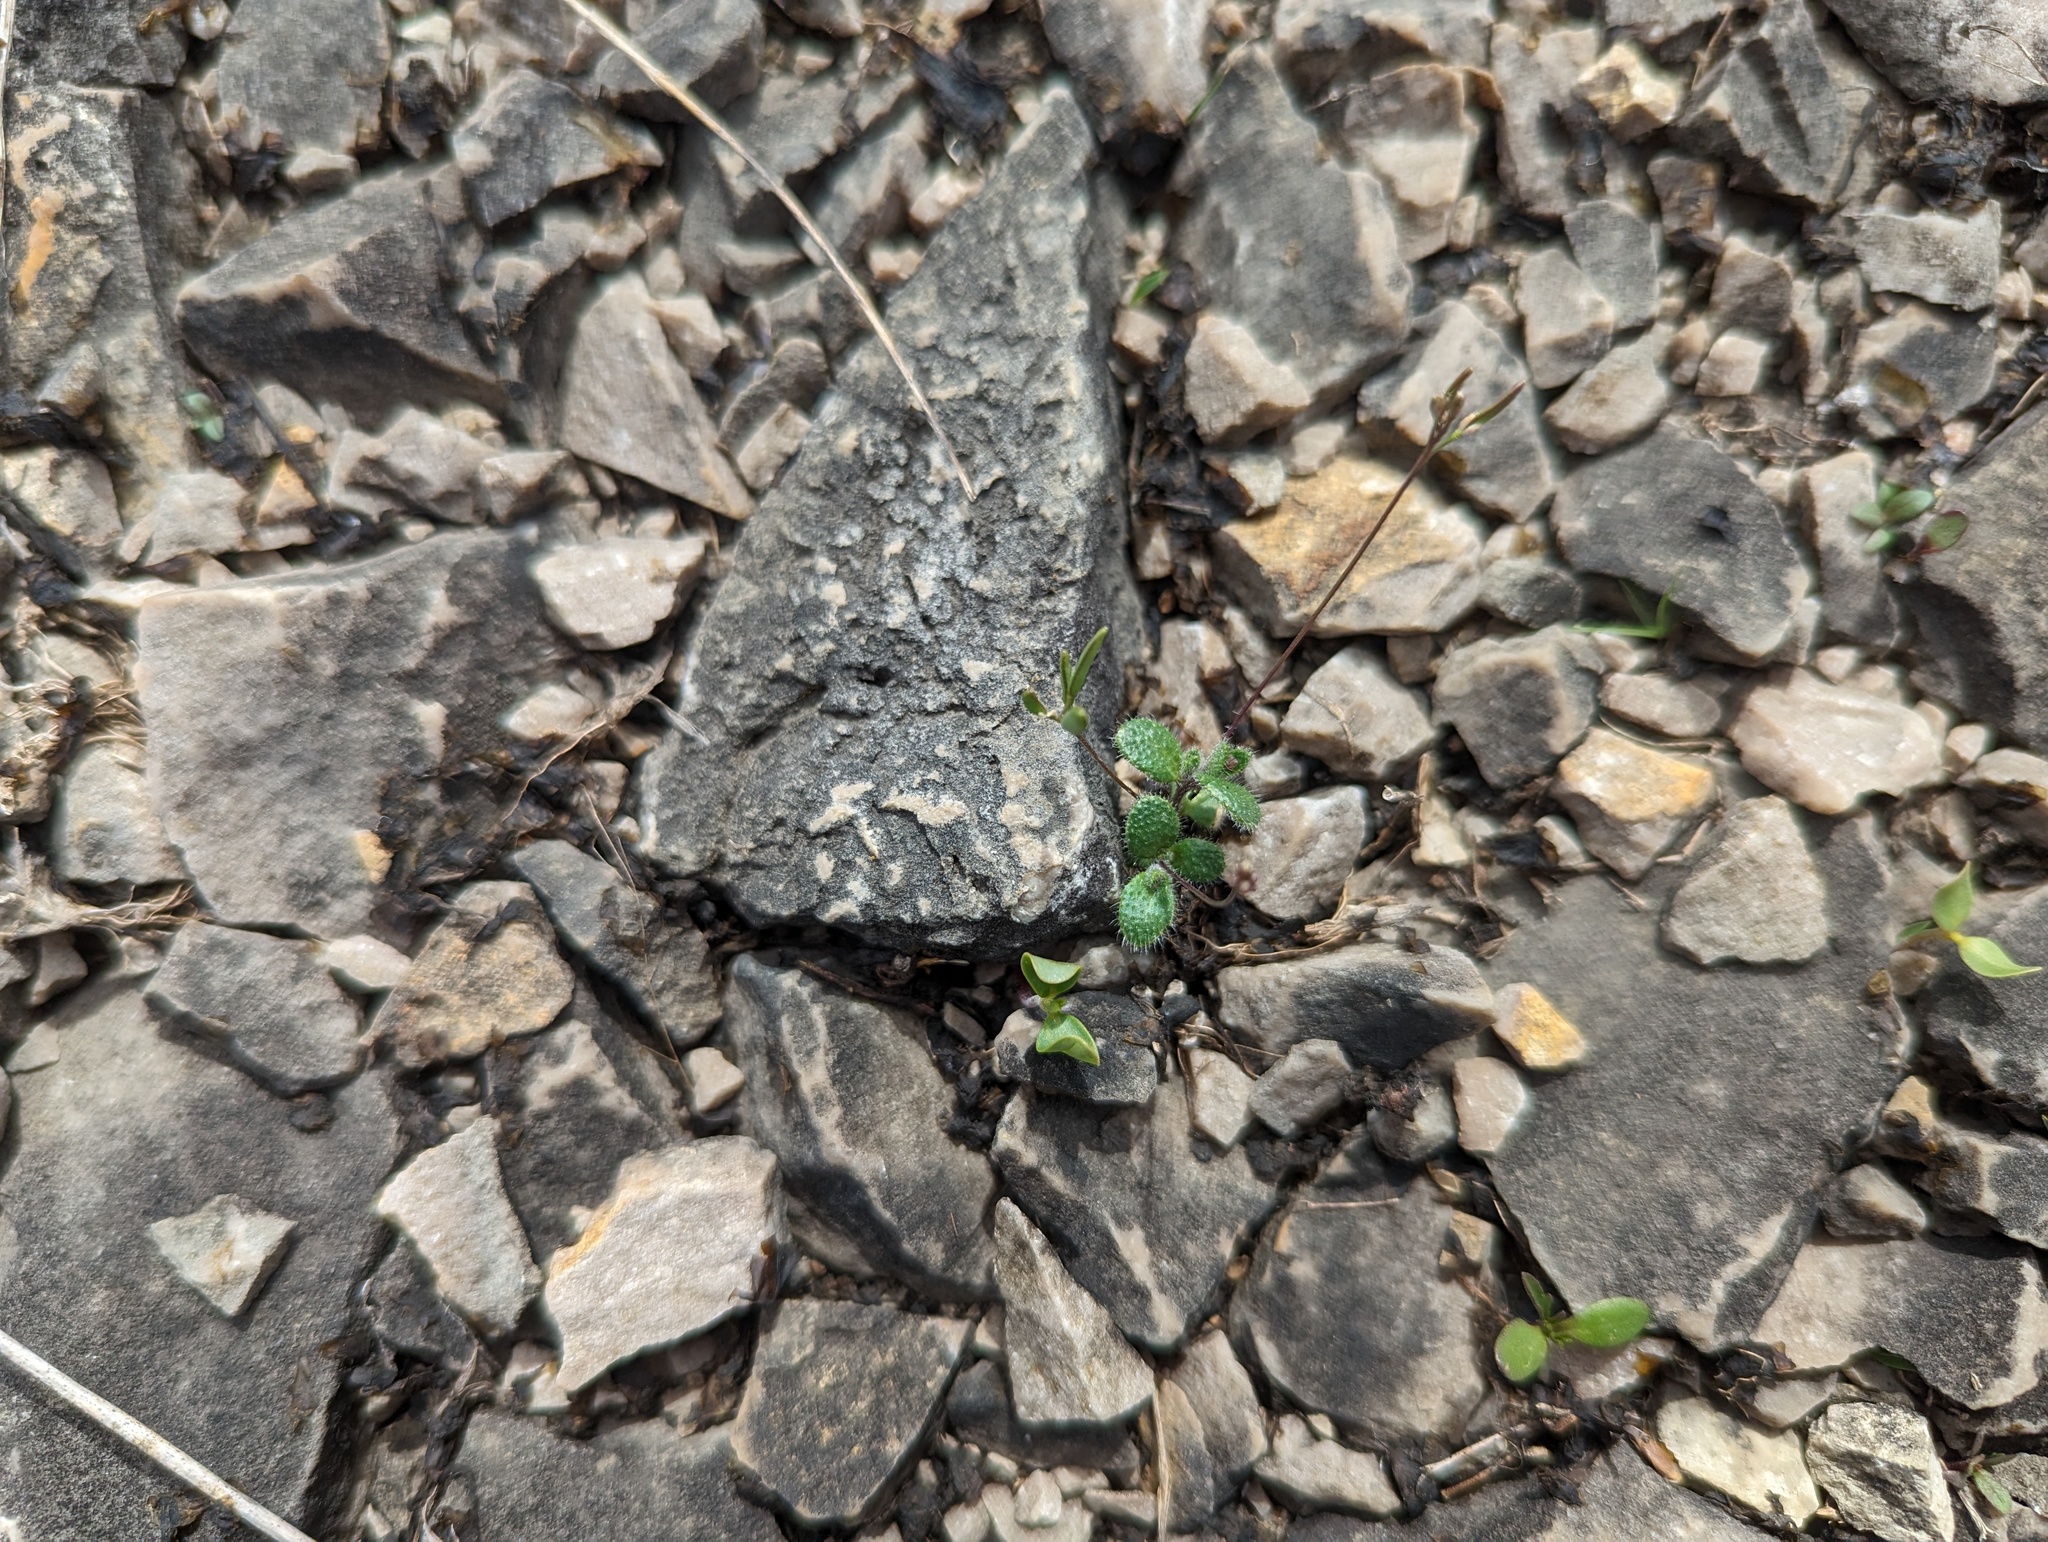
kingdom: Plantae
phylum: Tracheophyta
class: Magnoliopsida
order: Brassicales
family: Brassicaceae
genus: Tomostima
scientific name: Tomostima reptans
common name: Carolina draba
